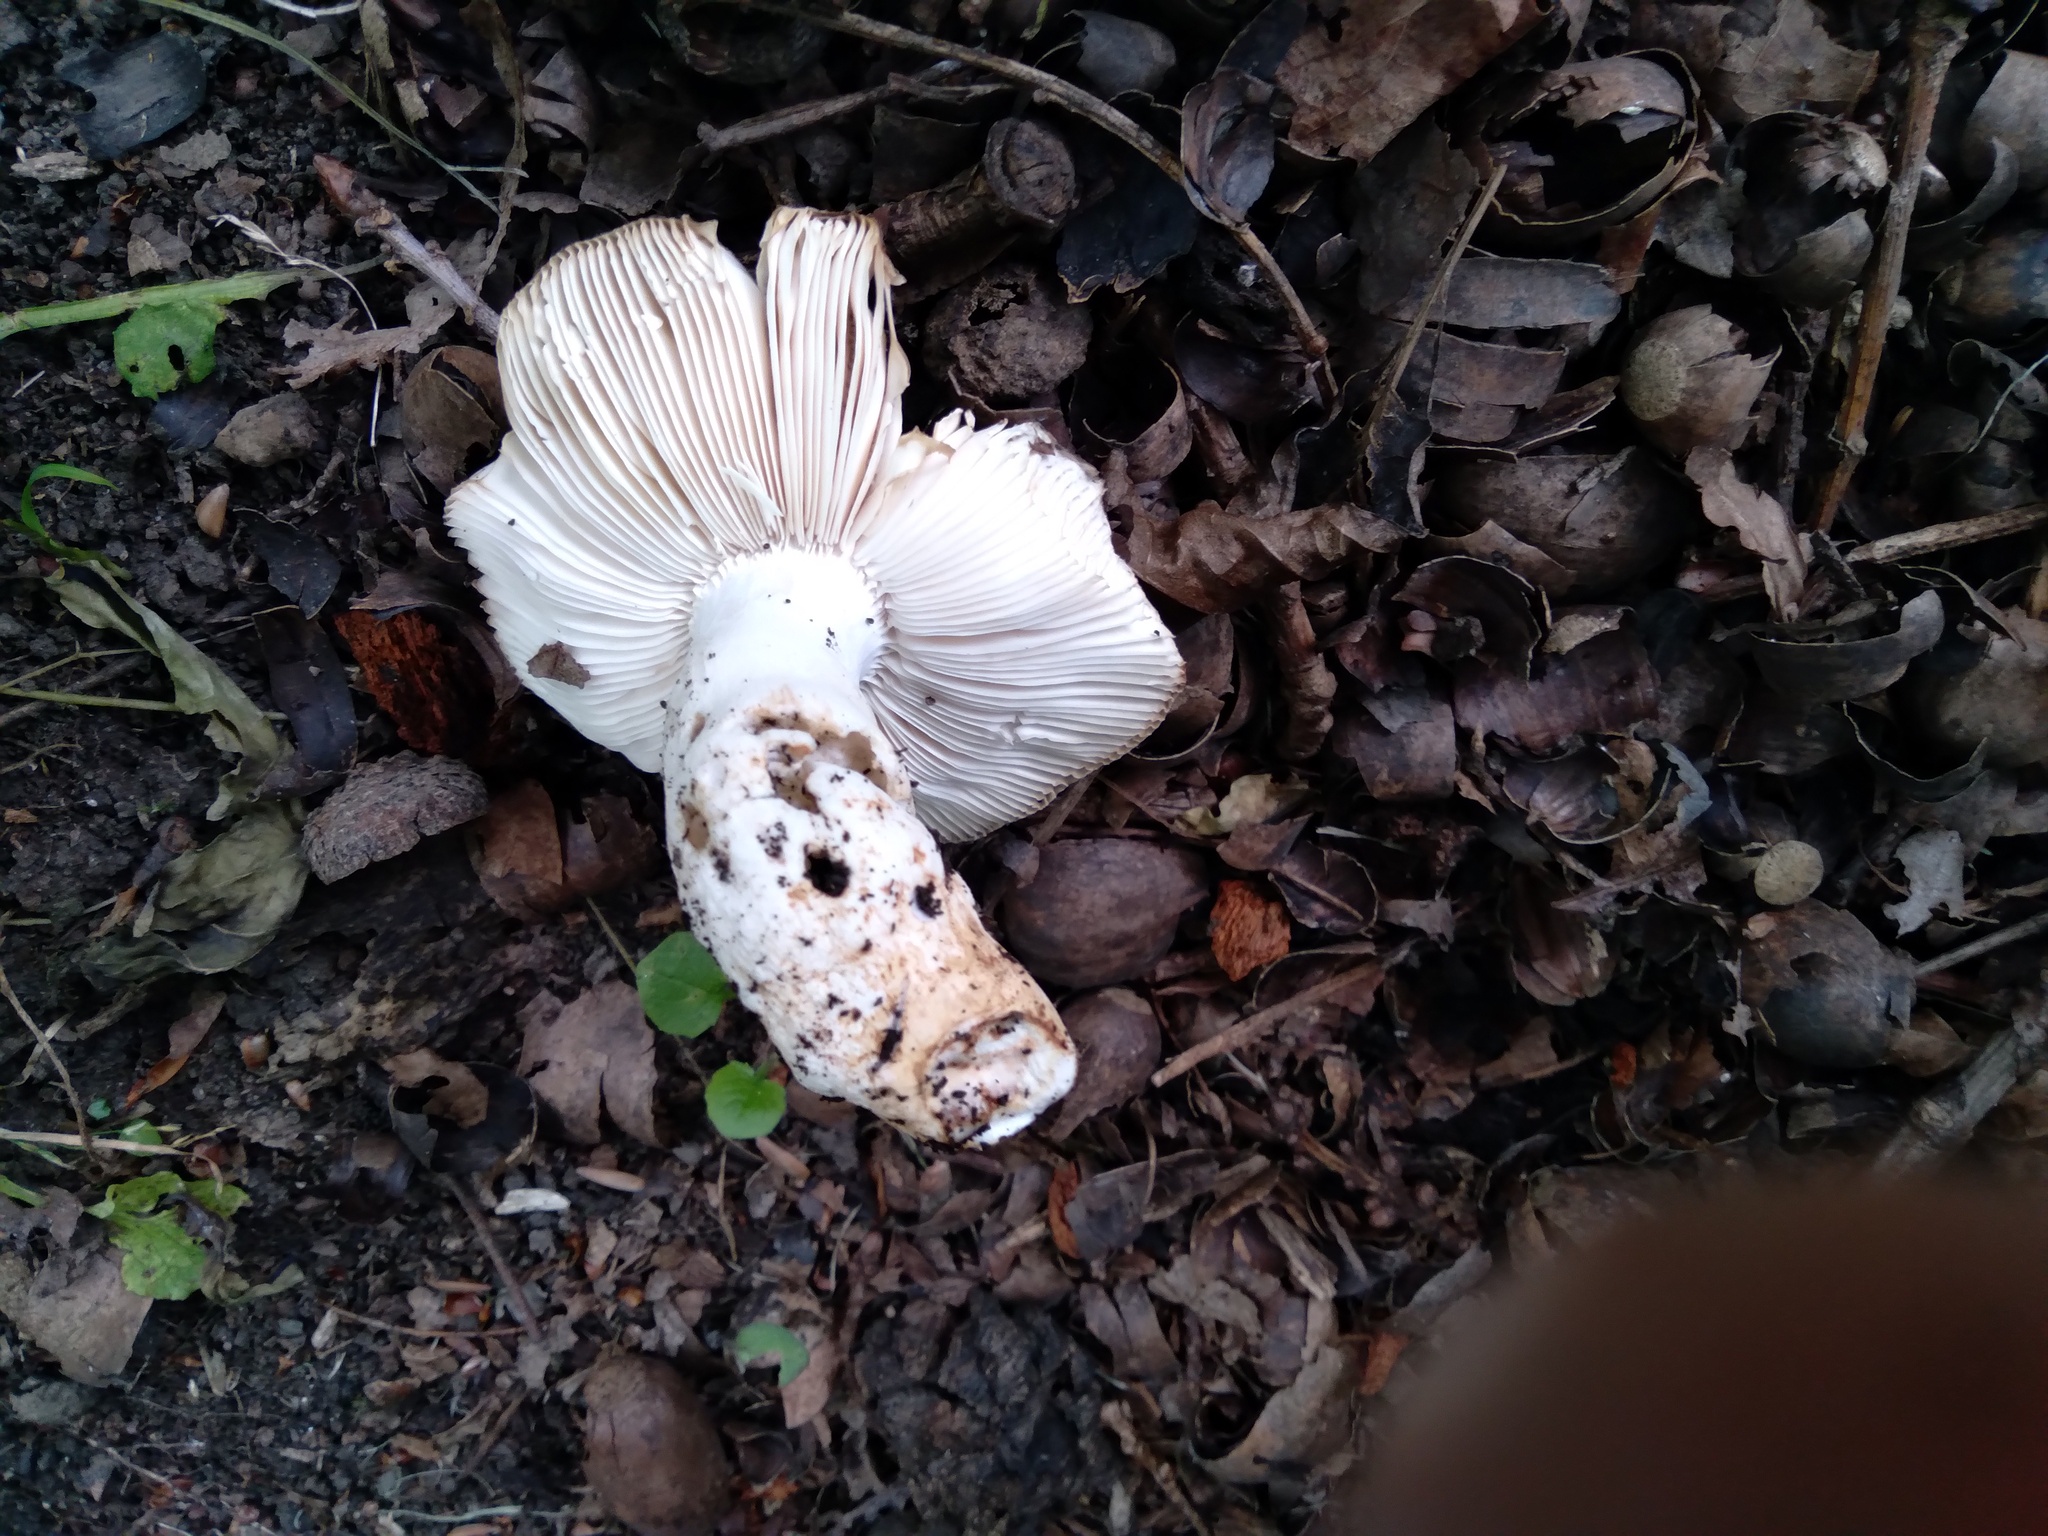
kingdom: Fungi
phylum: Basidiomycota
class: Agaricomycetes
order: Russulales
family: Russulaceae
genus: Russula
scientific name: Russula amoenolens
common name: Camembert brittlegill
